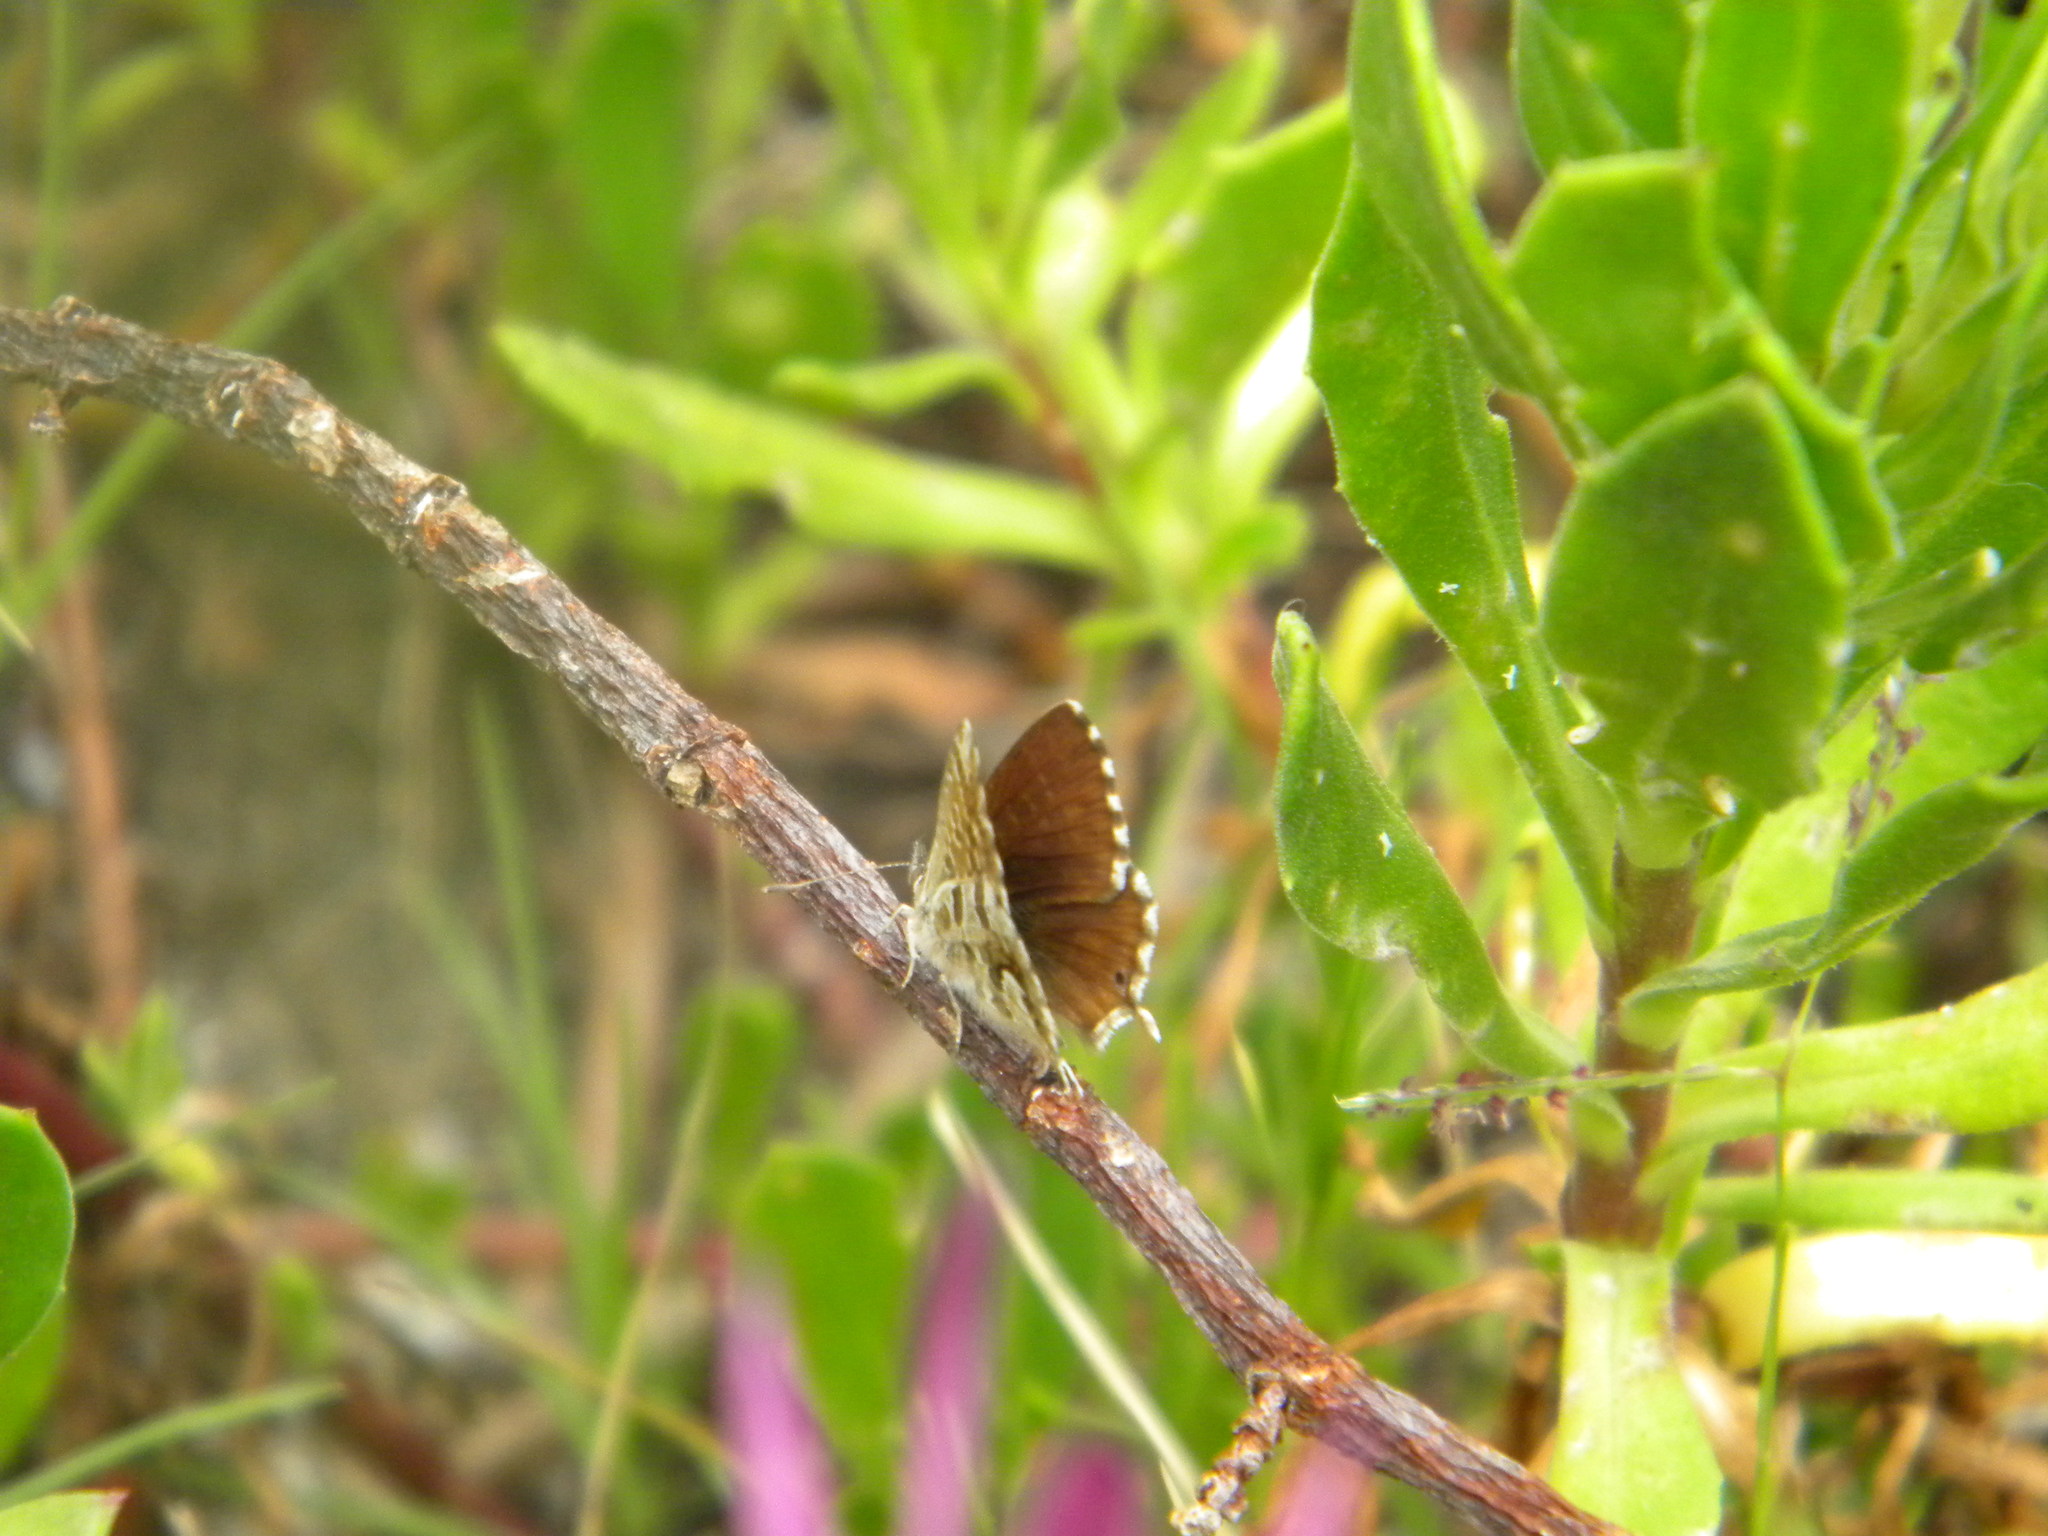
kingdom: Animalia
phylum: Arthropoda
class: Insecta
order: Lepidoptera
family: Lycaenidae
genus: Cacyreus
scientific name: Cacyreus fracta
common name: Water bronze
